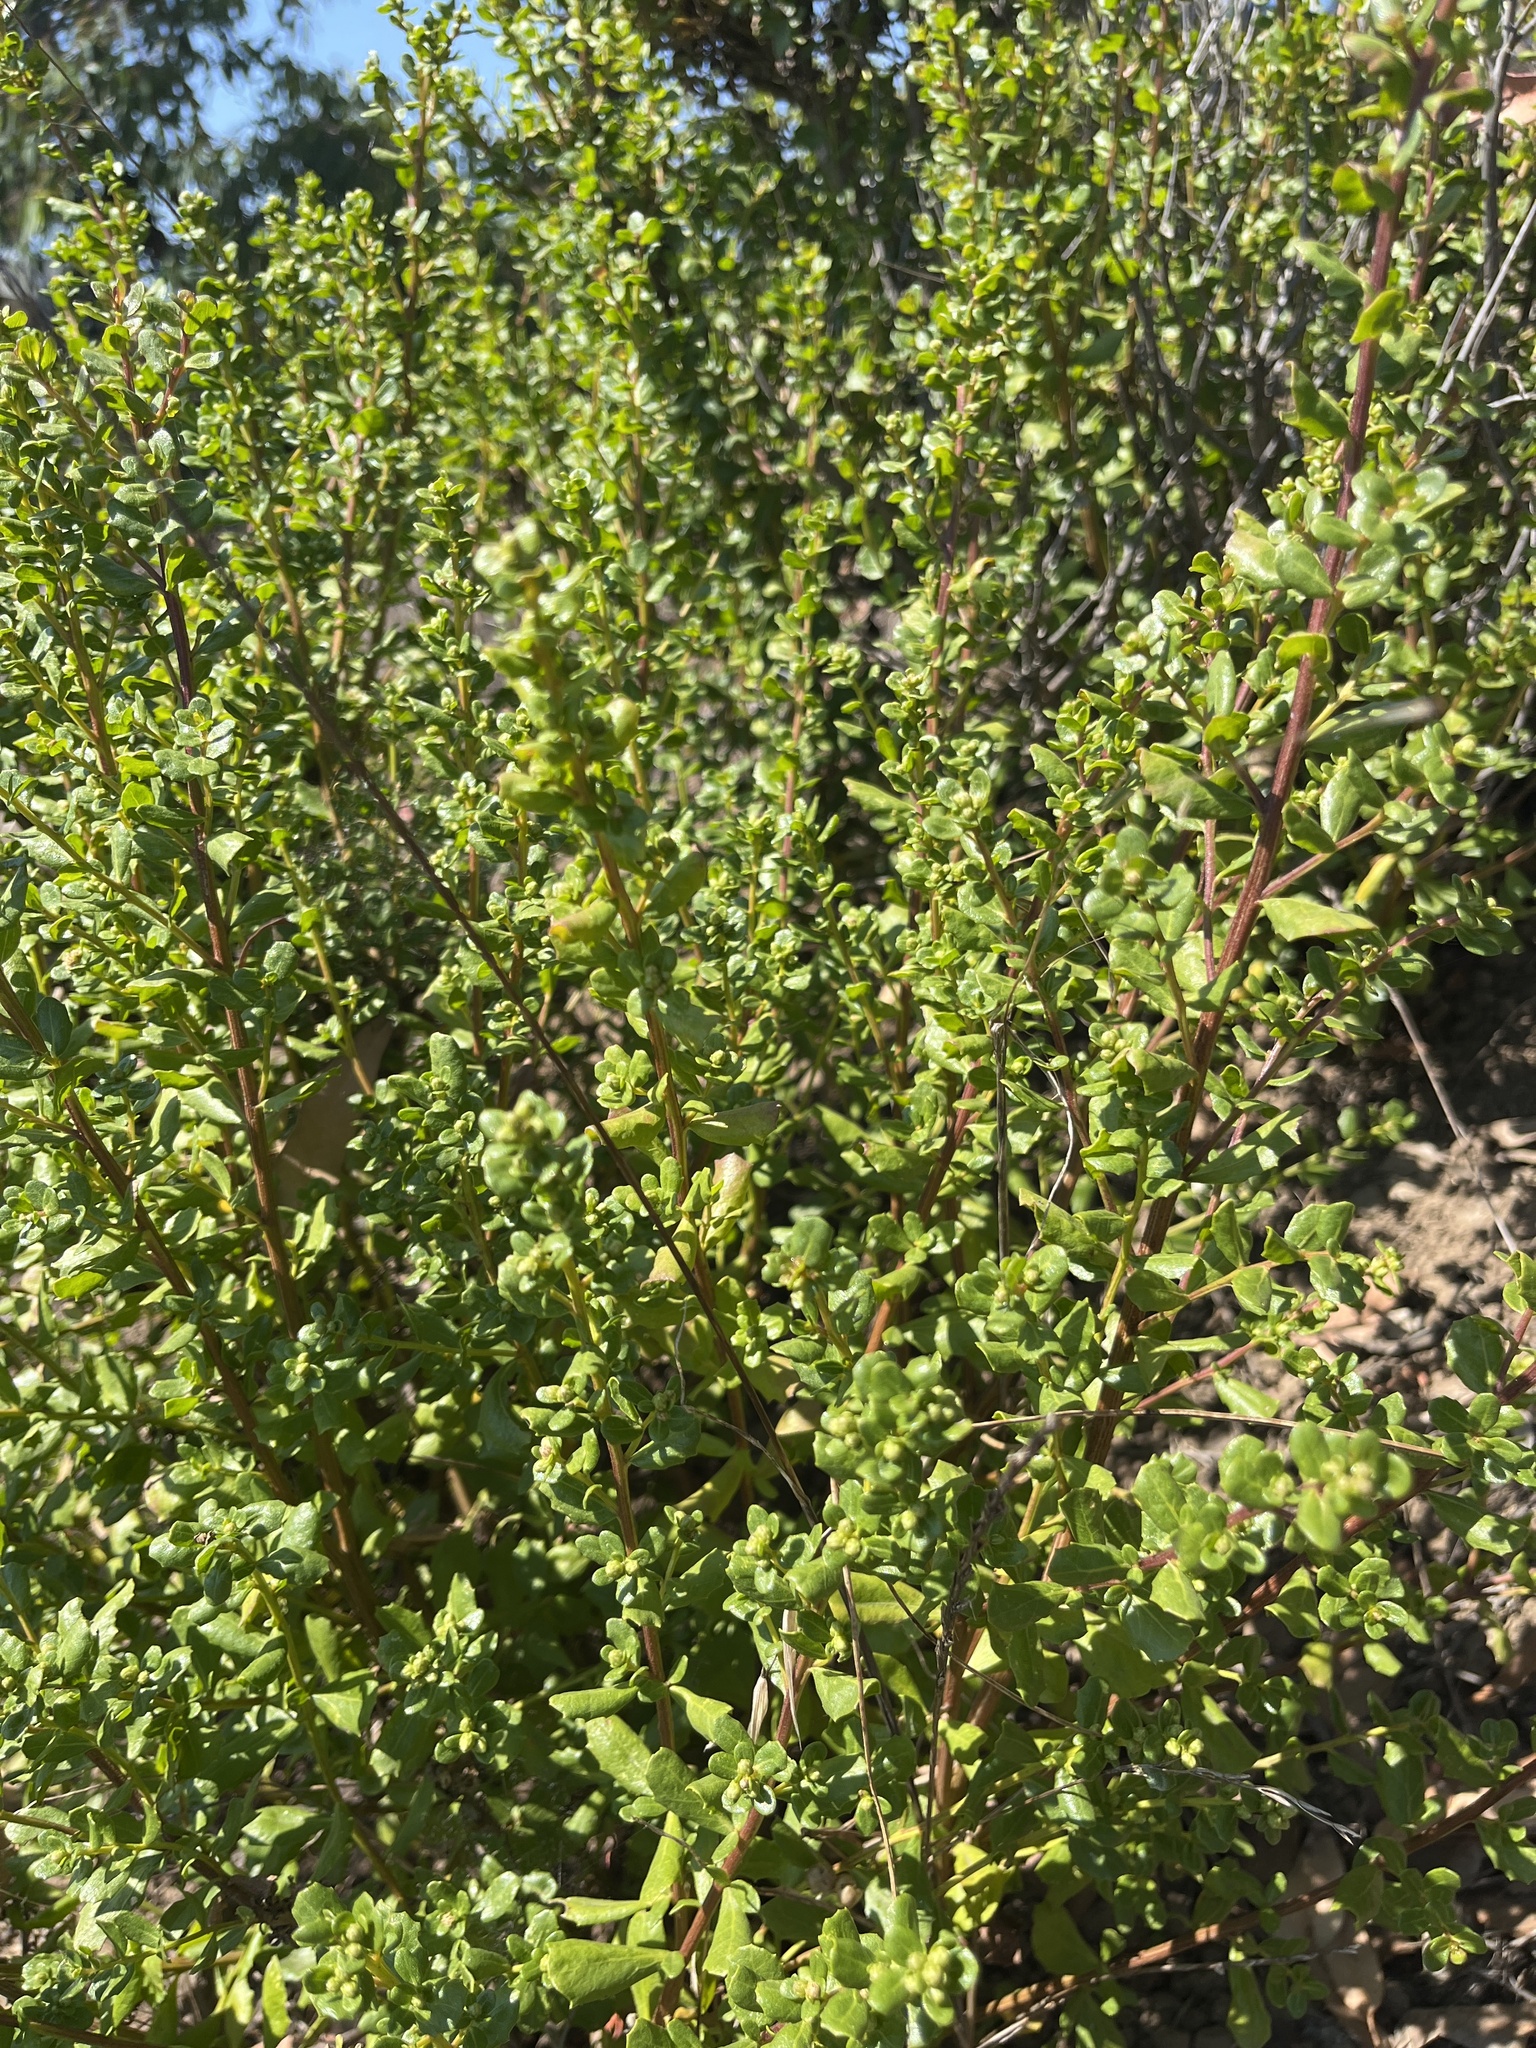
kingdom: Plantae
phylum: Tracheophyta
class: Magnoliopsida
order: Asterales
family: Asteraceae
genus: Baccharis
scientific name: Baccharis pilularis
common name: Coyotebrush
